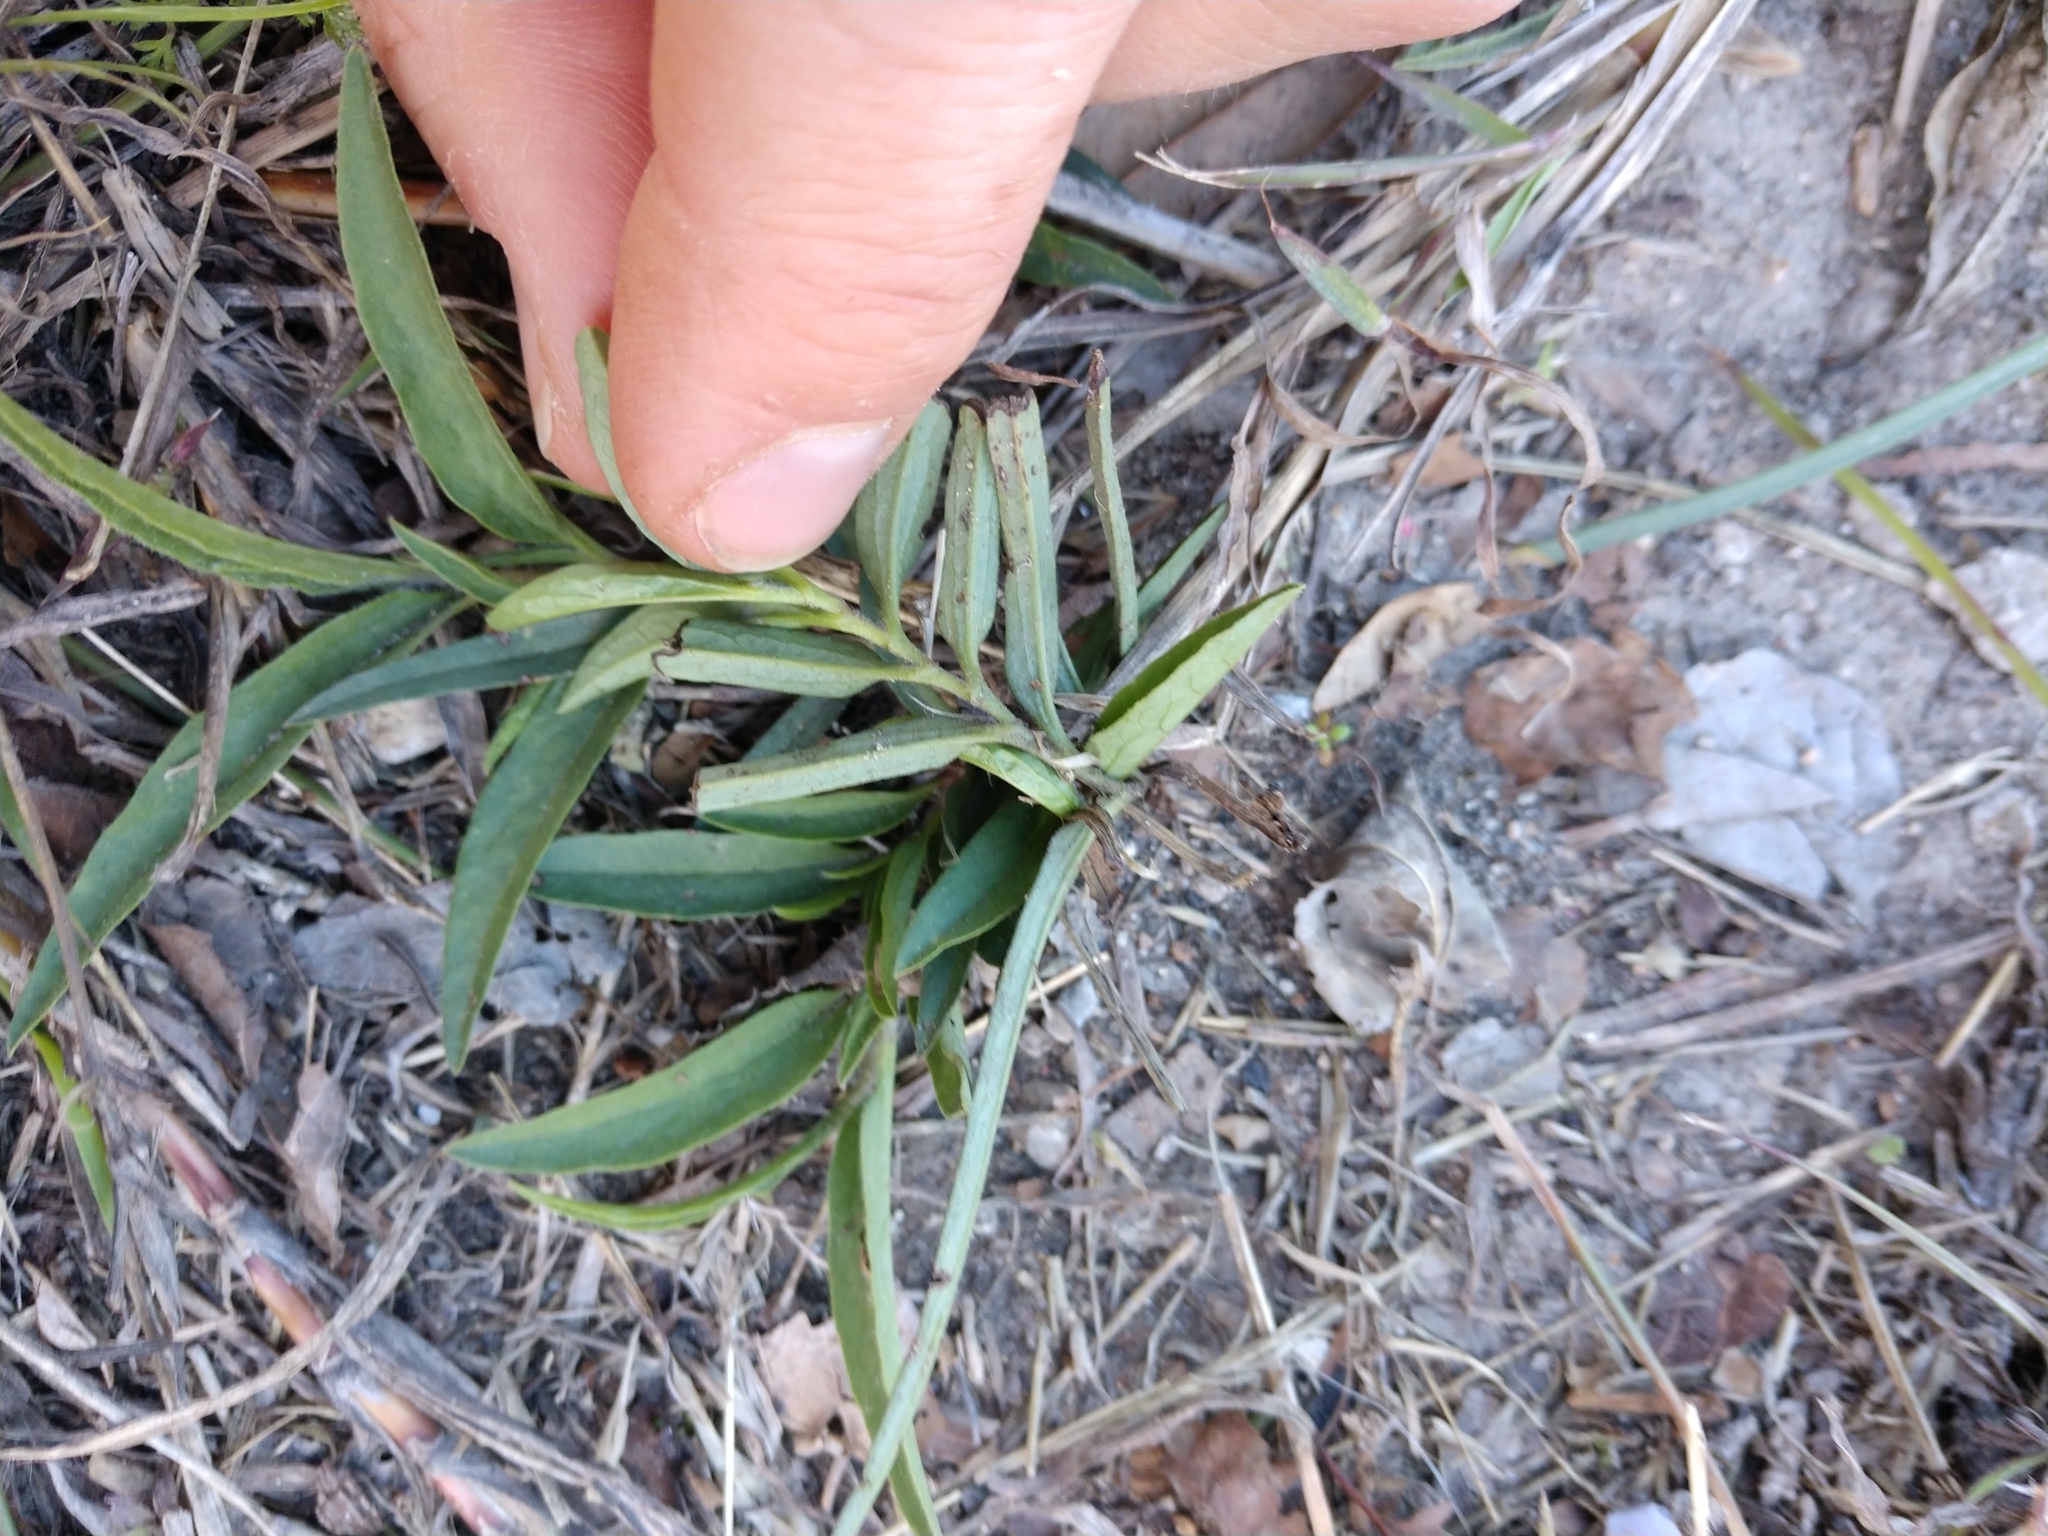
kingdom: Plantae
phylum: Tracheophyta
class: Magnoliopsida
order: Piperales
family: Aristolochiaceae
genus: Aristolochia
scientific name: Aristolochia erecta
